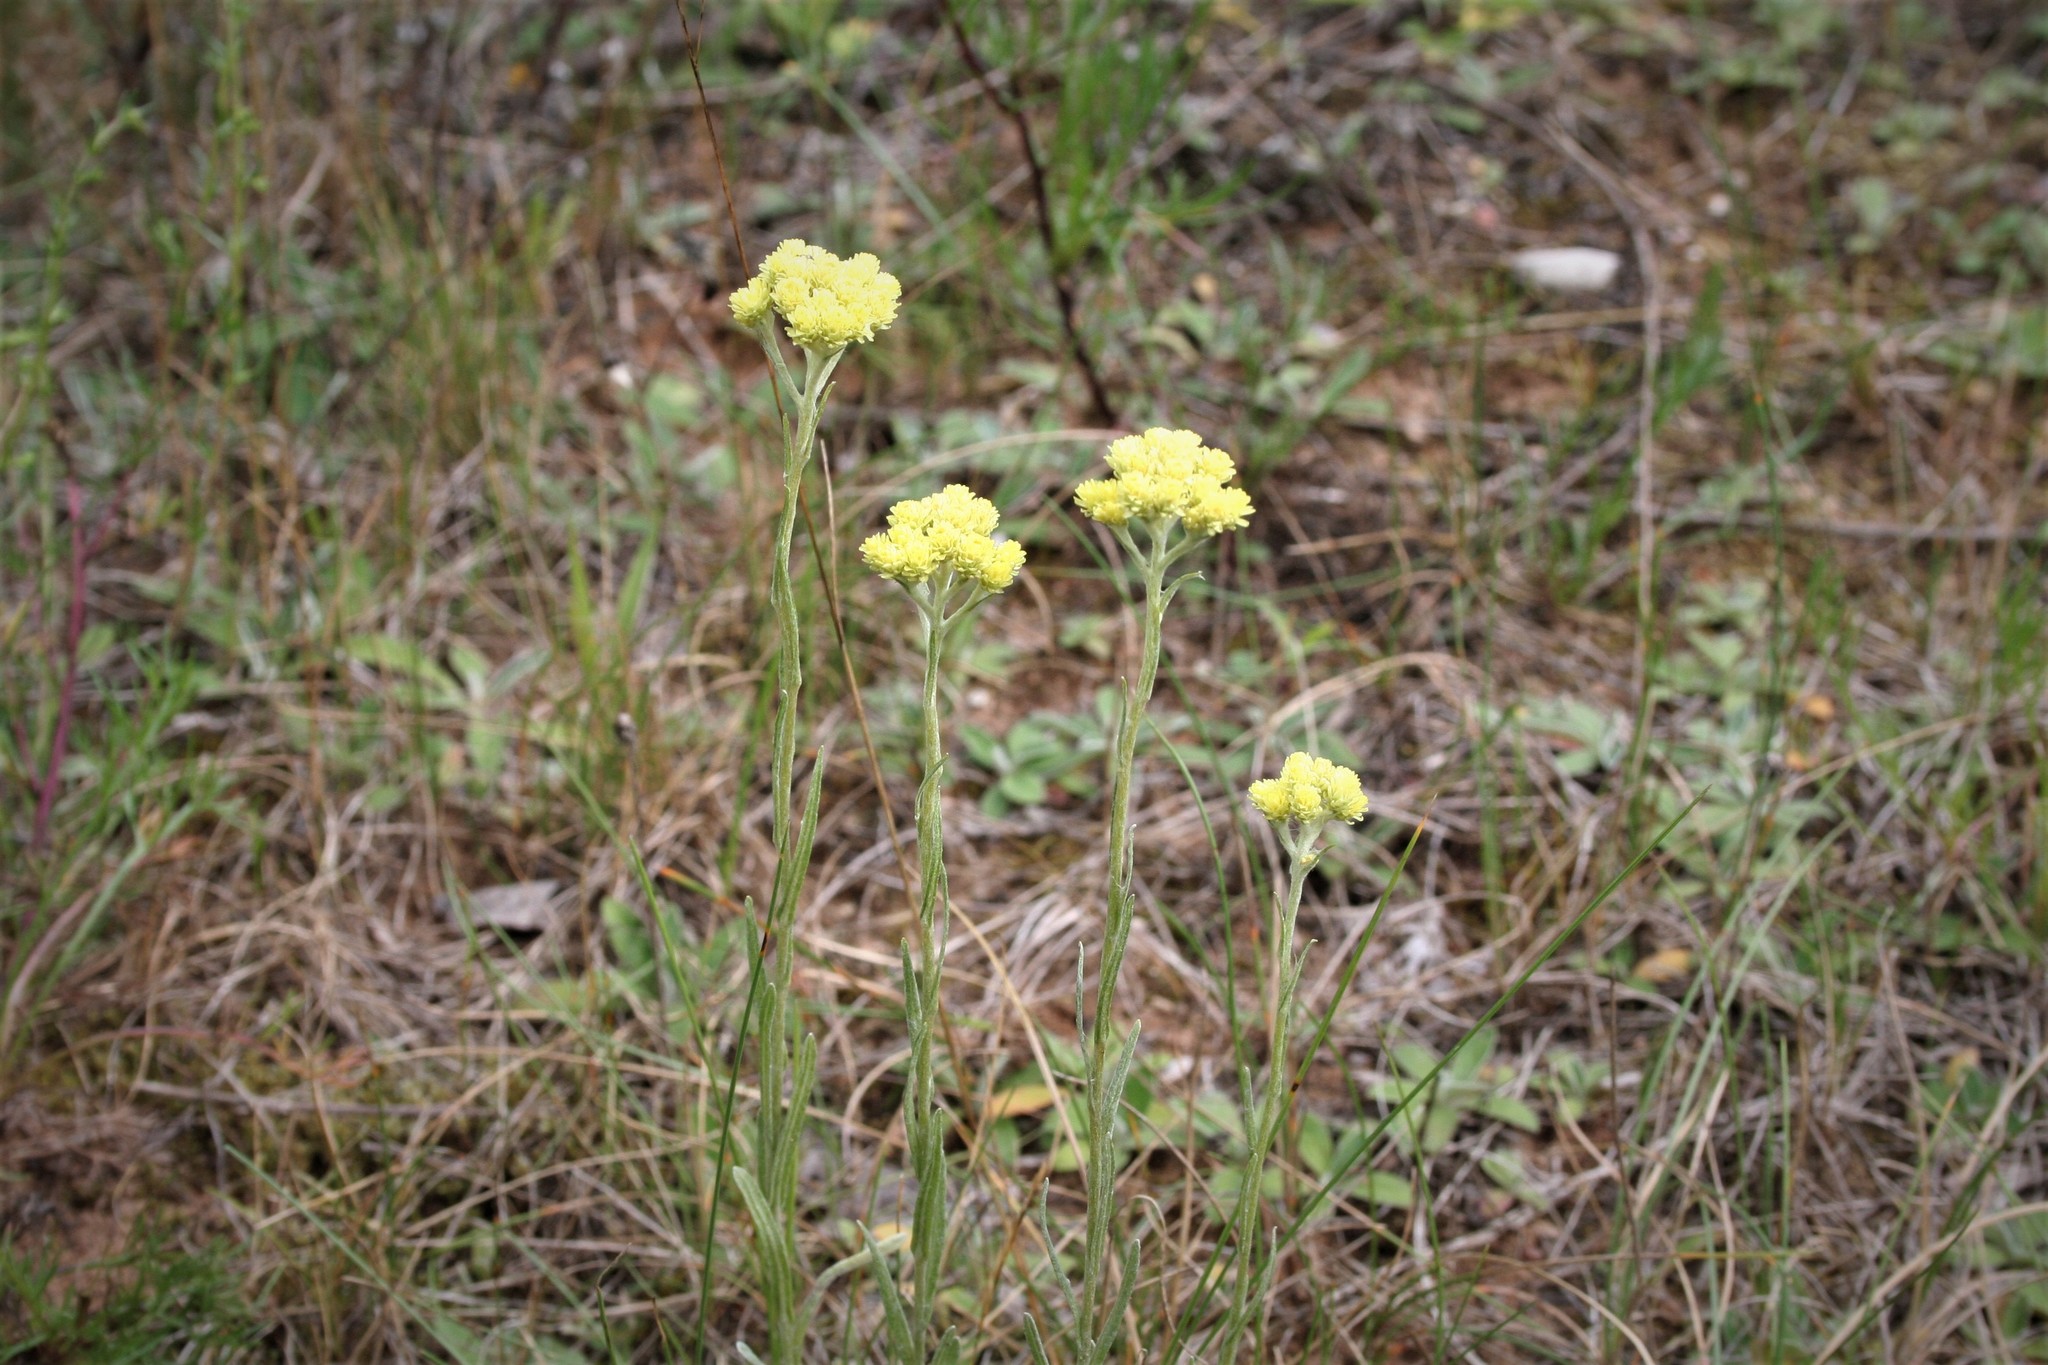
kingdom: Plantae
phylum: Tracheophyta
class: Magnoliopsida
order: Asterales
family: Asteraceae
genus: Helichrysum
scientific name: Helichrysum arenarium
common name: Strawflower
